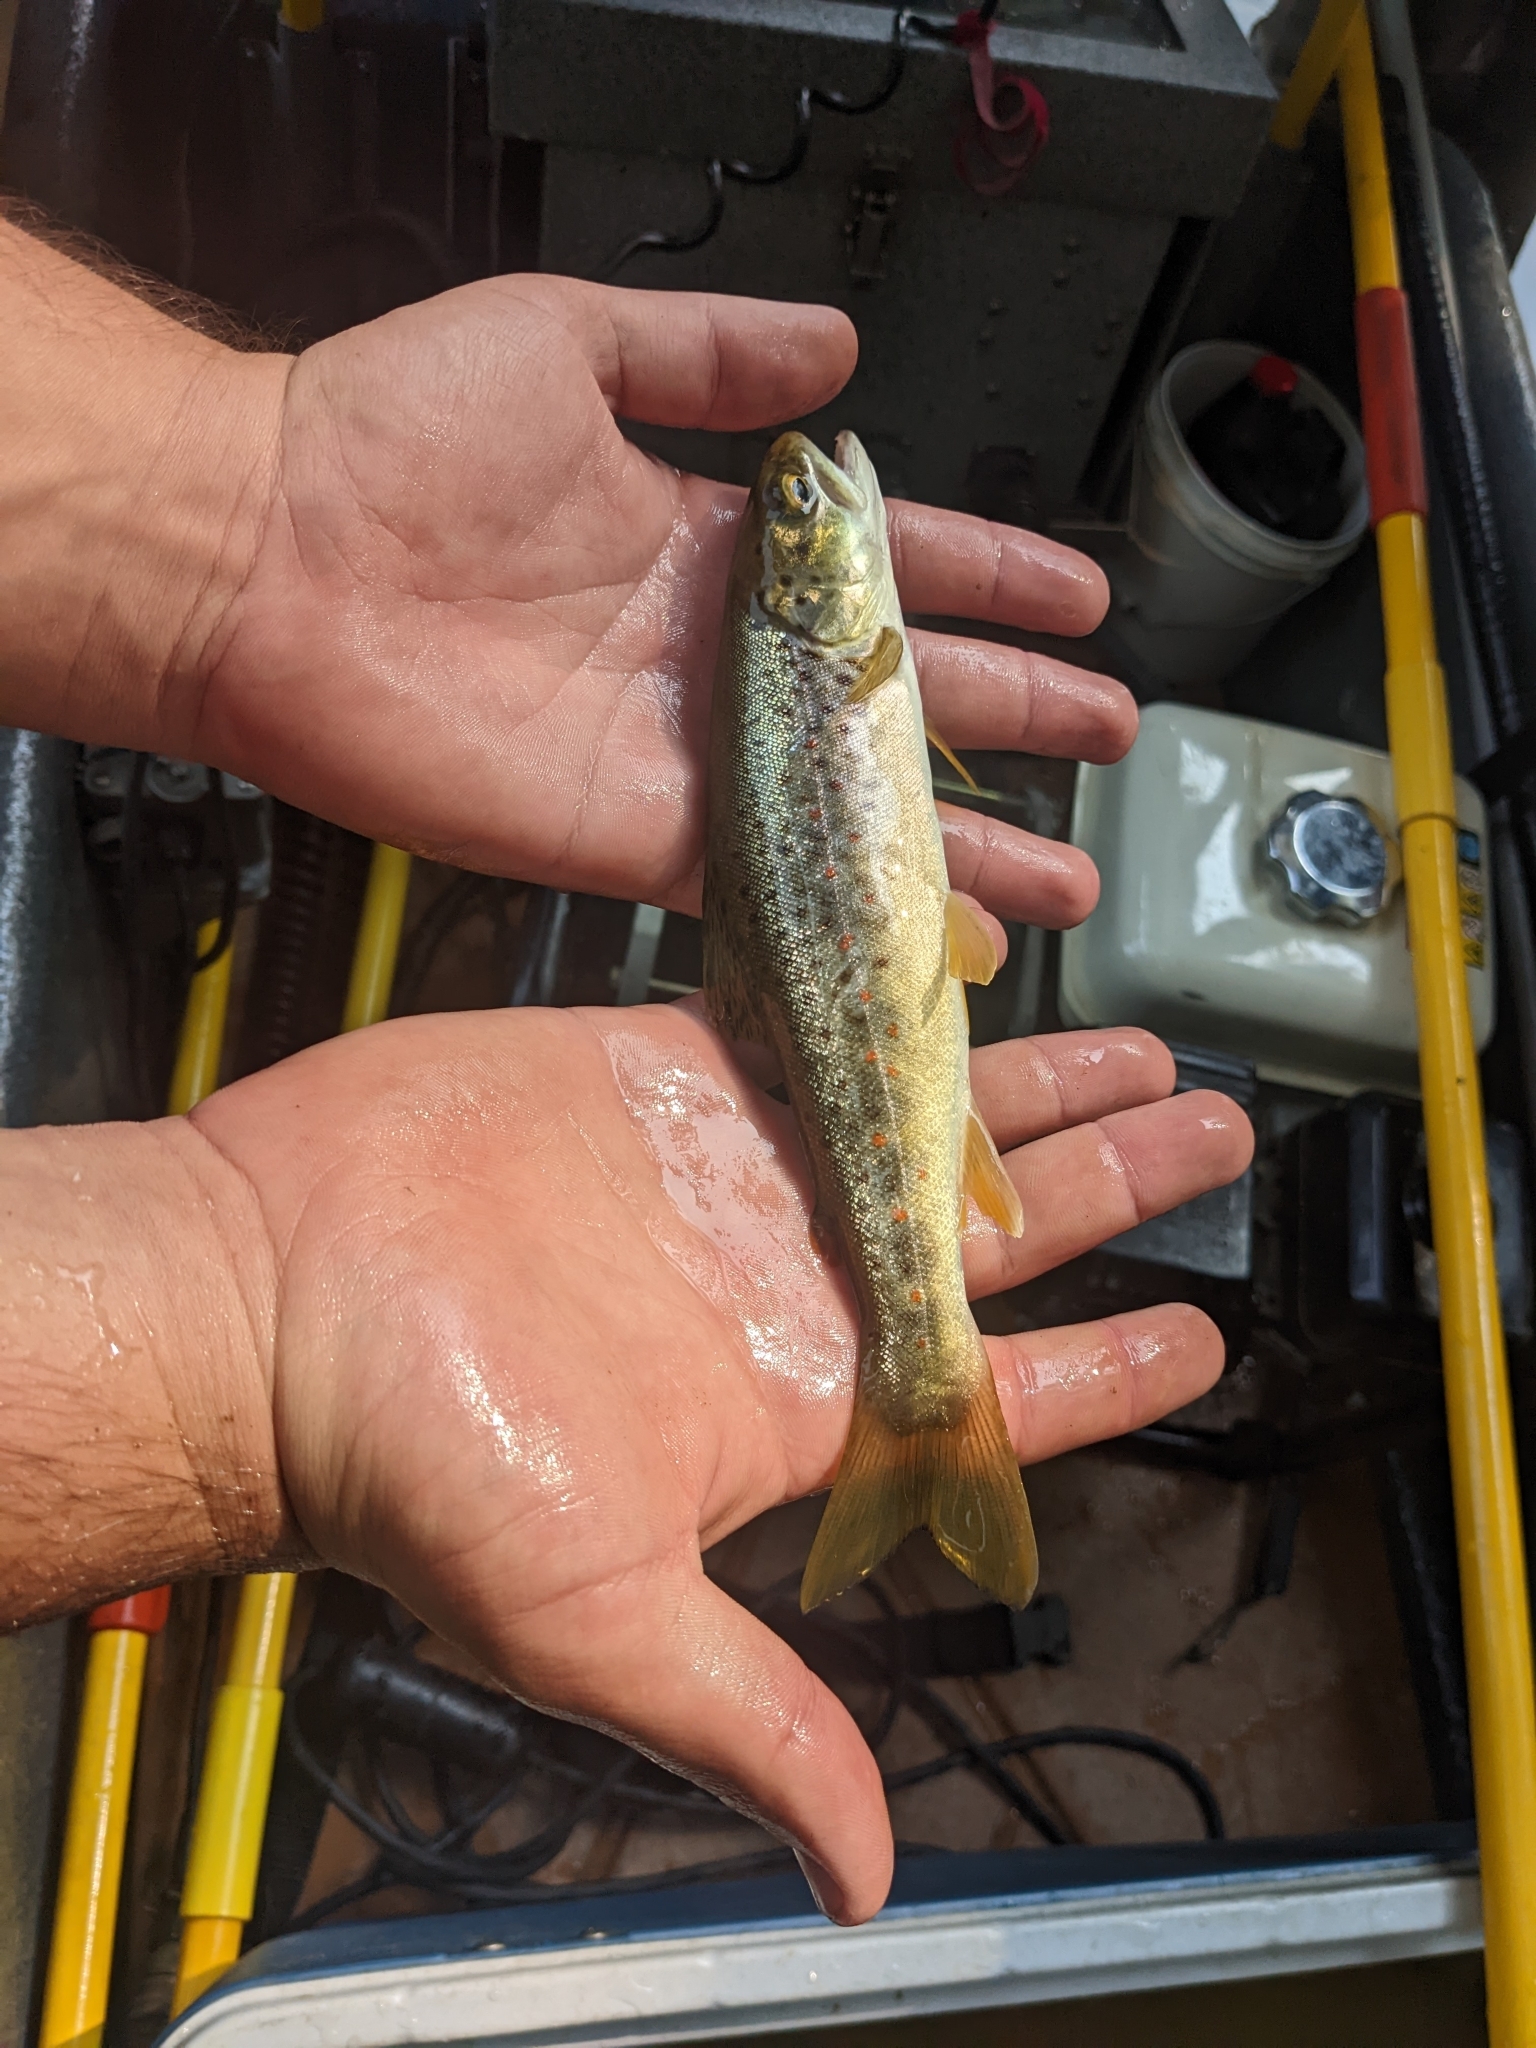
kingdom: Animalia
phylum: Chordata
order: Salmoniformes
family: Salmonidae
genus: Salmo
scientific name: Salmo trutta
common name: Brown trout
